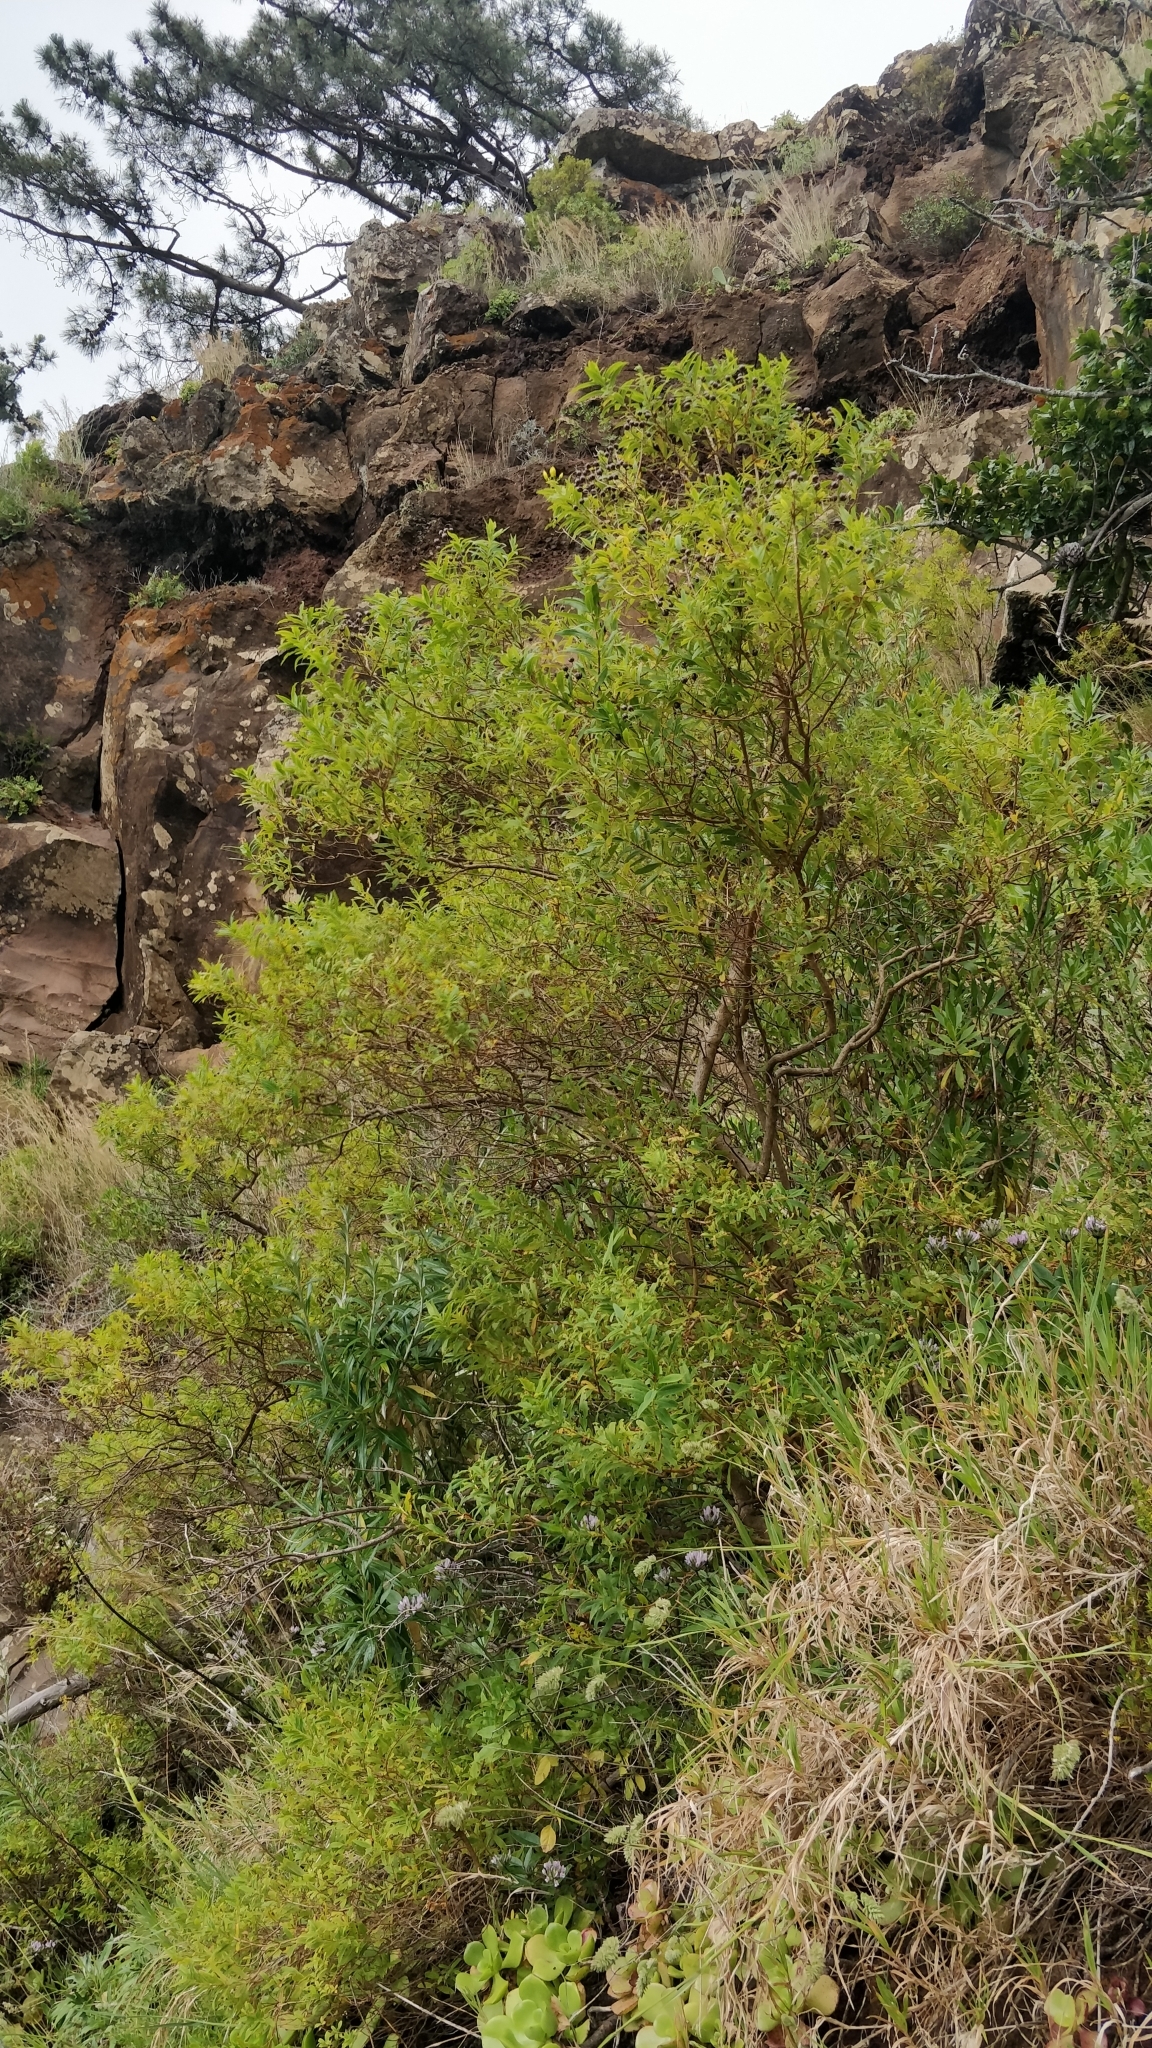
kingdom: Plantae
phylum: Tracheophyta
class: Magnoliopsida
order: Malpighiales
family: Hypericaceae
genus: Hypericum
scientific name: Hypericum canariense
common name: Canary island st. johnswort
